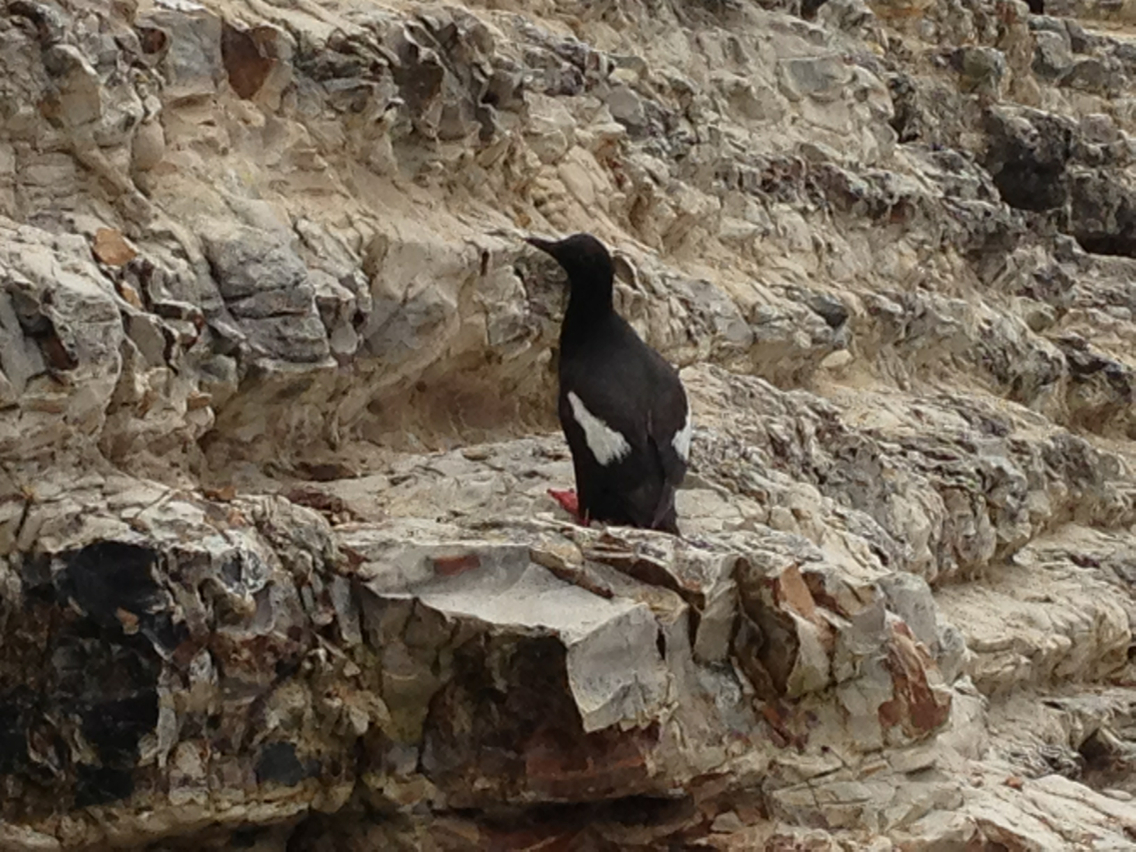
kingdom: Animalia
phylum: Chordata
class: Aves
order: Charadriiformes
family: Alcidae
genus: Cepphus
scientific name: Cepphus columba
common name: Pigeon guillemot
